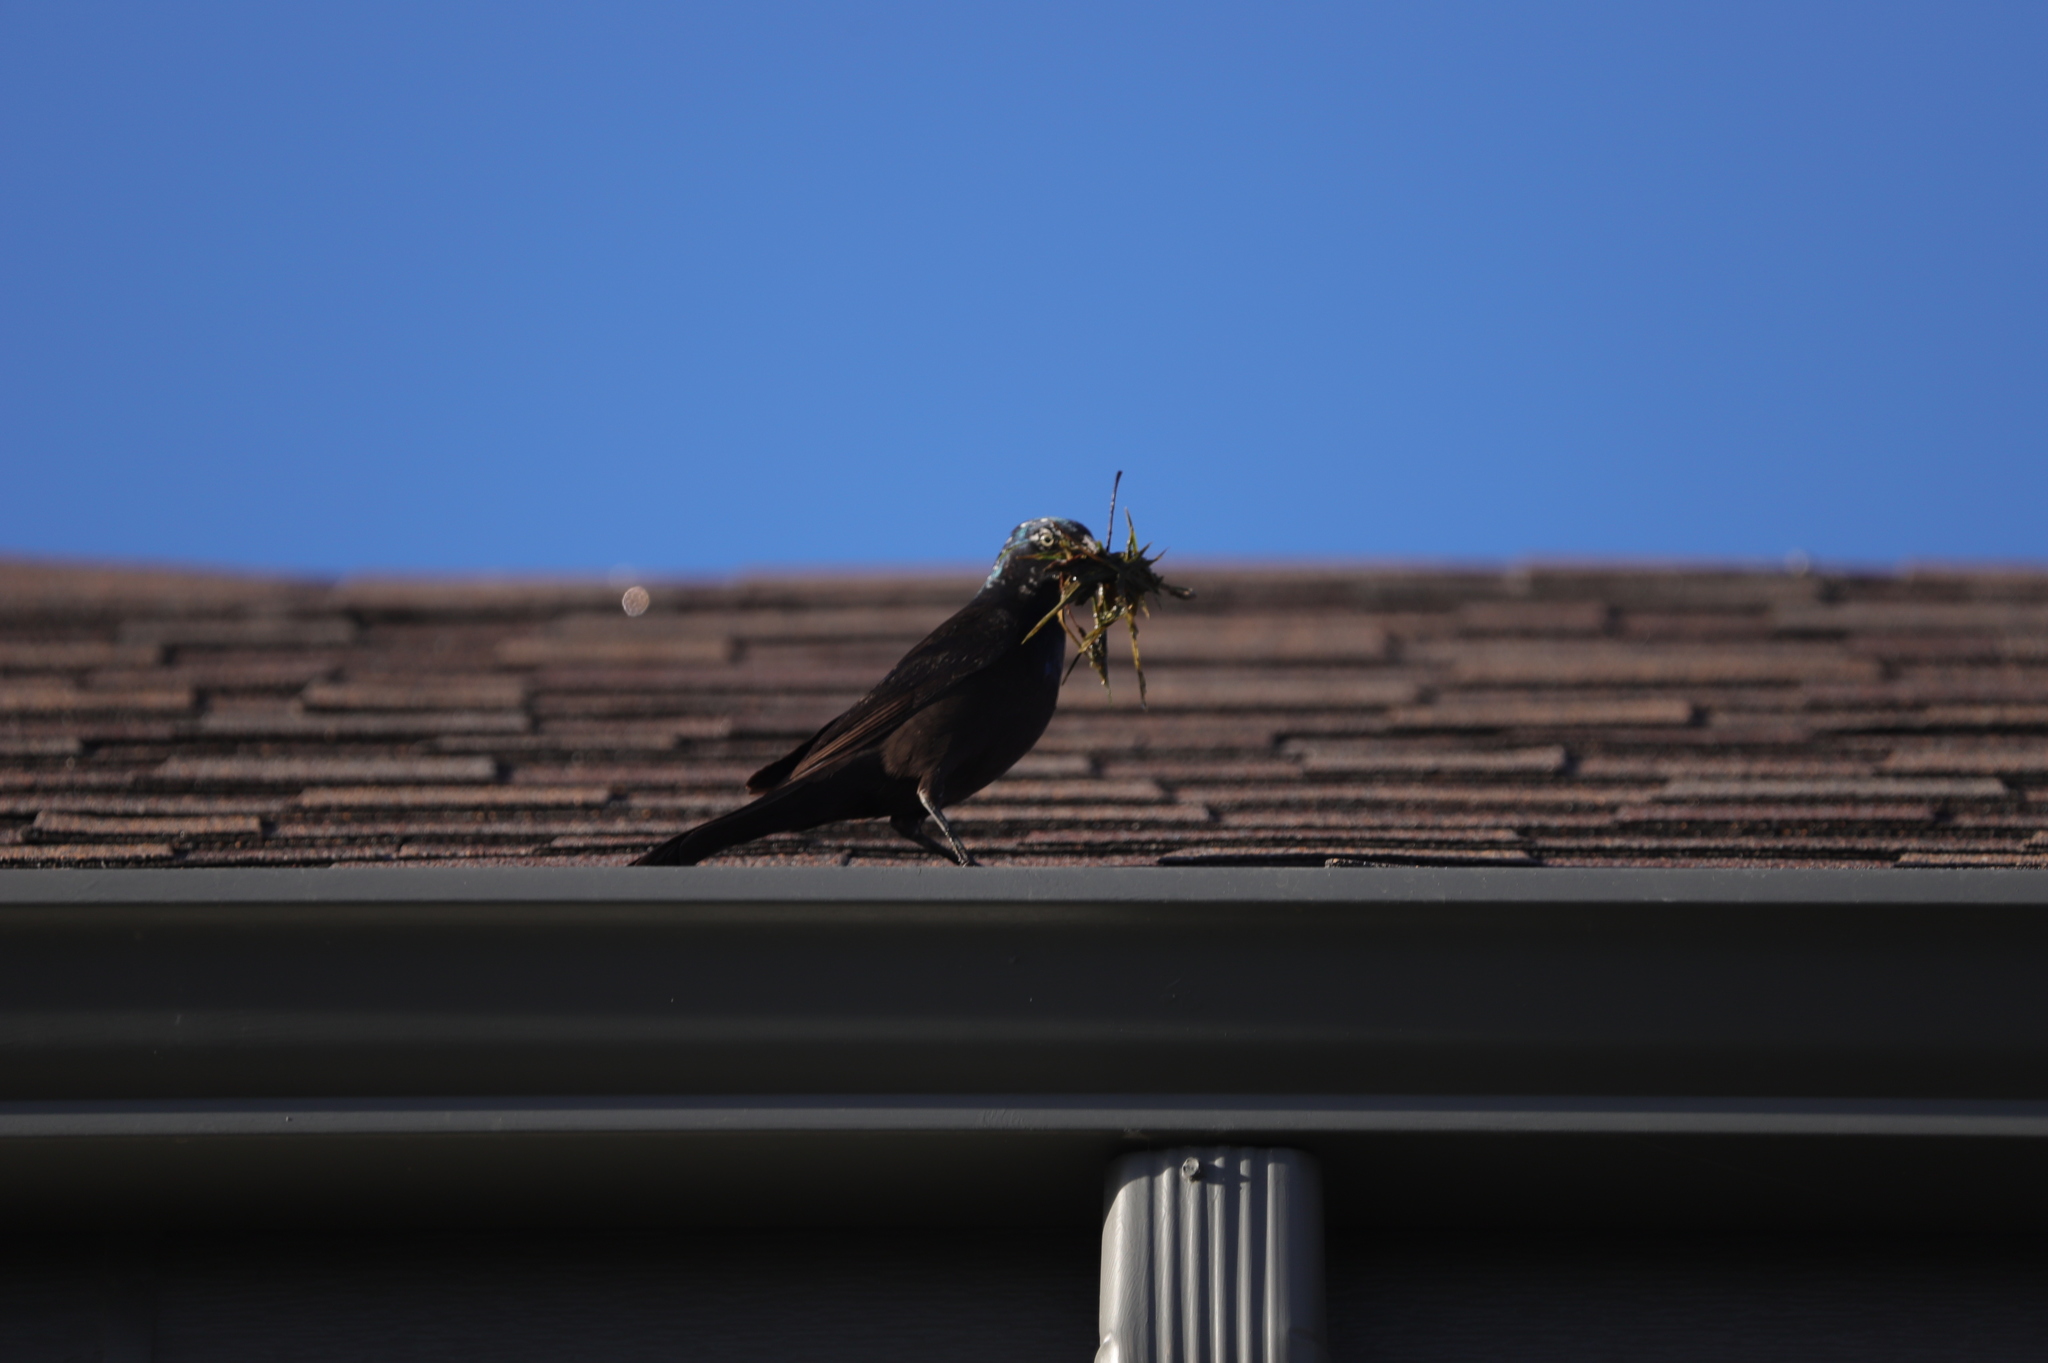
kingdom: Animalia
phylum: Chordata
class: Aves
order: Passeriformes
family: Icteridae
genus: Quiscalus
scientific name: Quiscalus quiscula
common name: Common grackle
